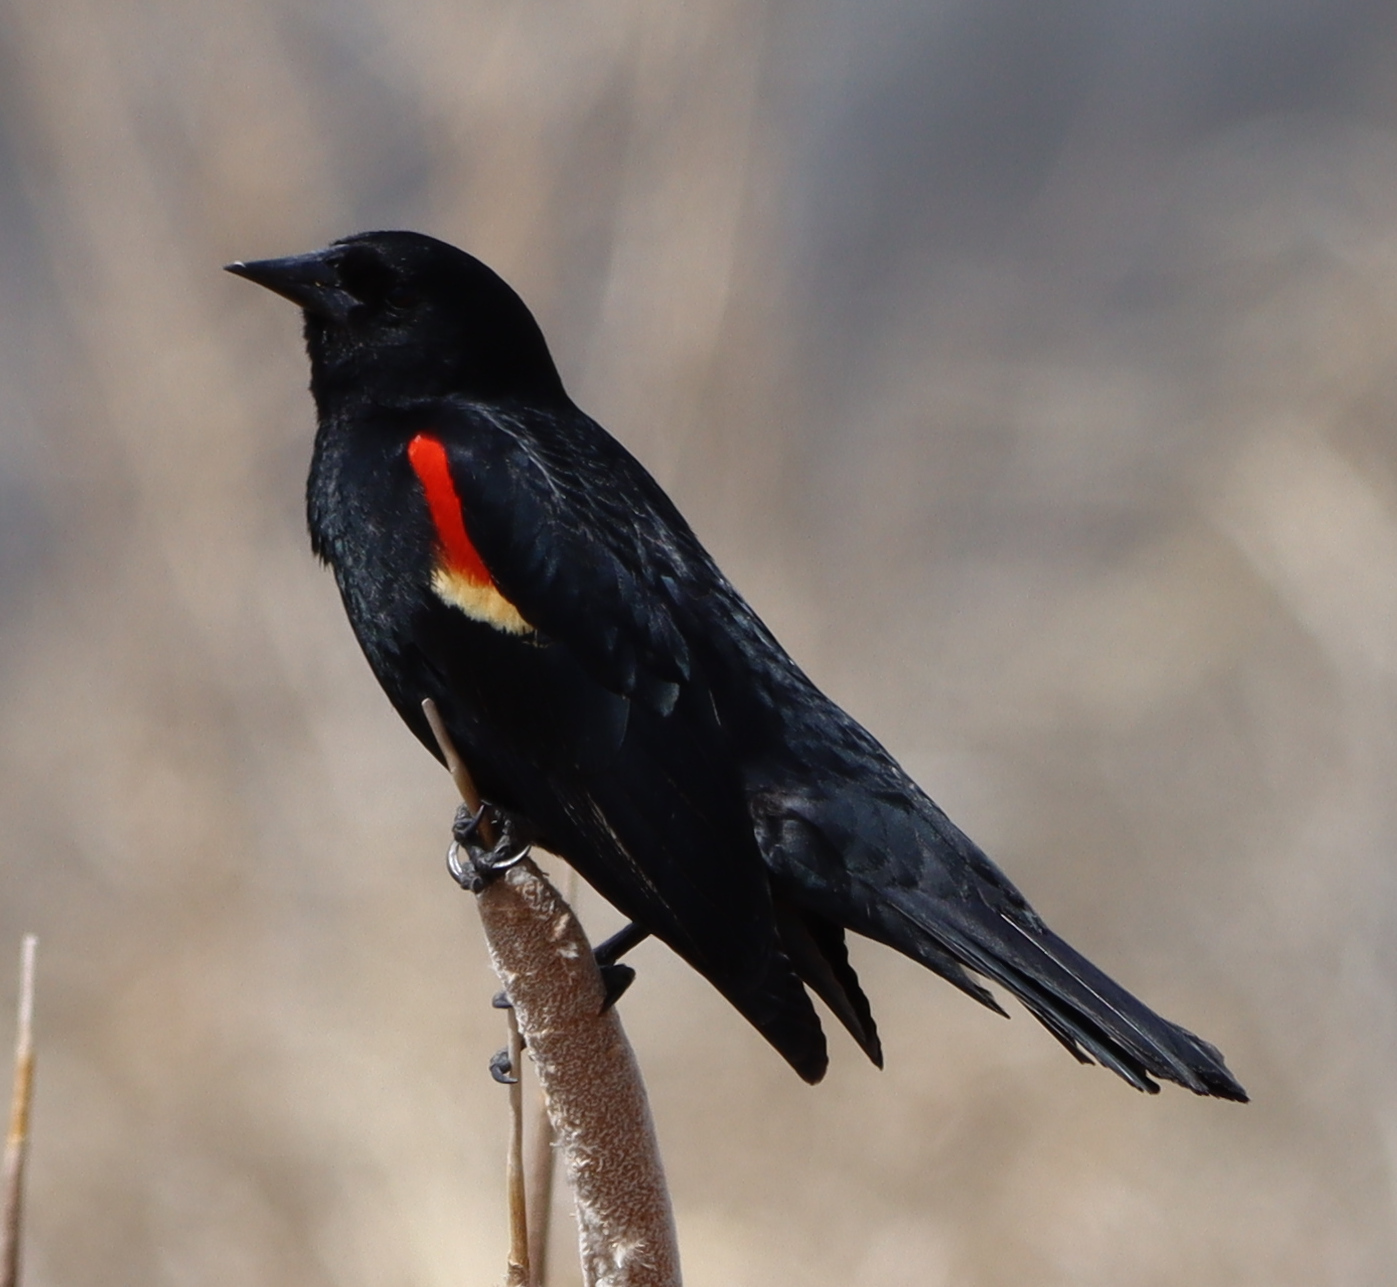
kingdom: Animalia
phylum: Chordata
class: Aves
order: Passeriformes
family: Icteridae
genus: Agelaius
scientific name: Agelaius phoeniceus
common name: Red-winged blackbird
